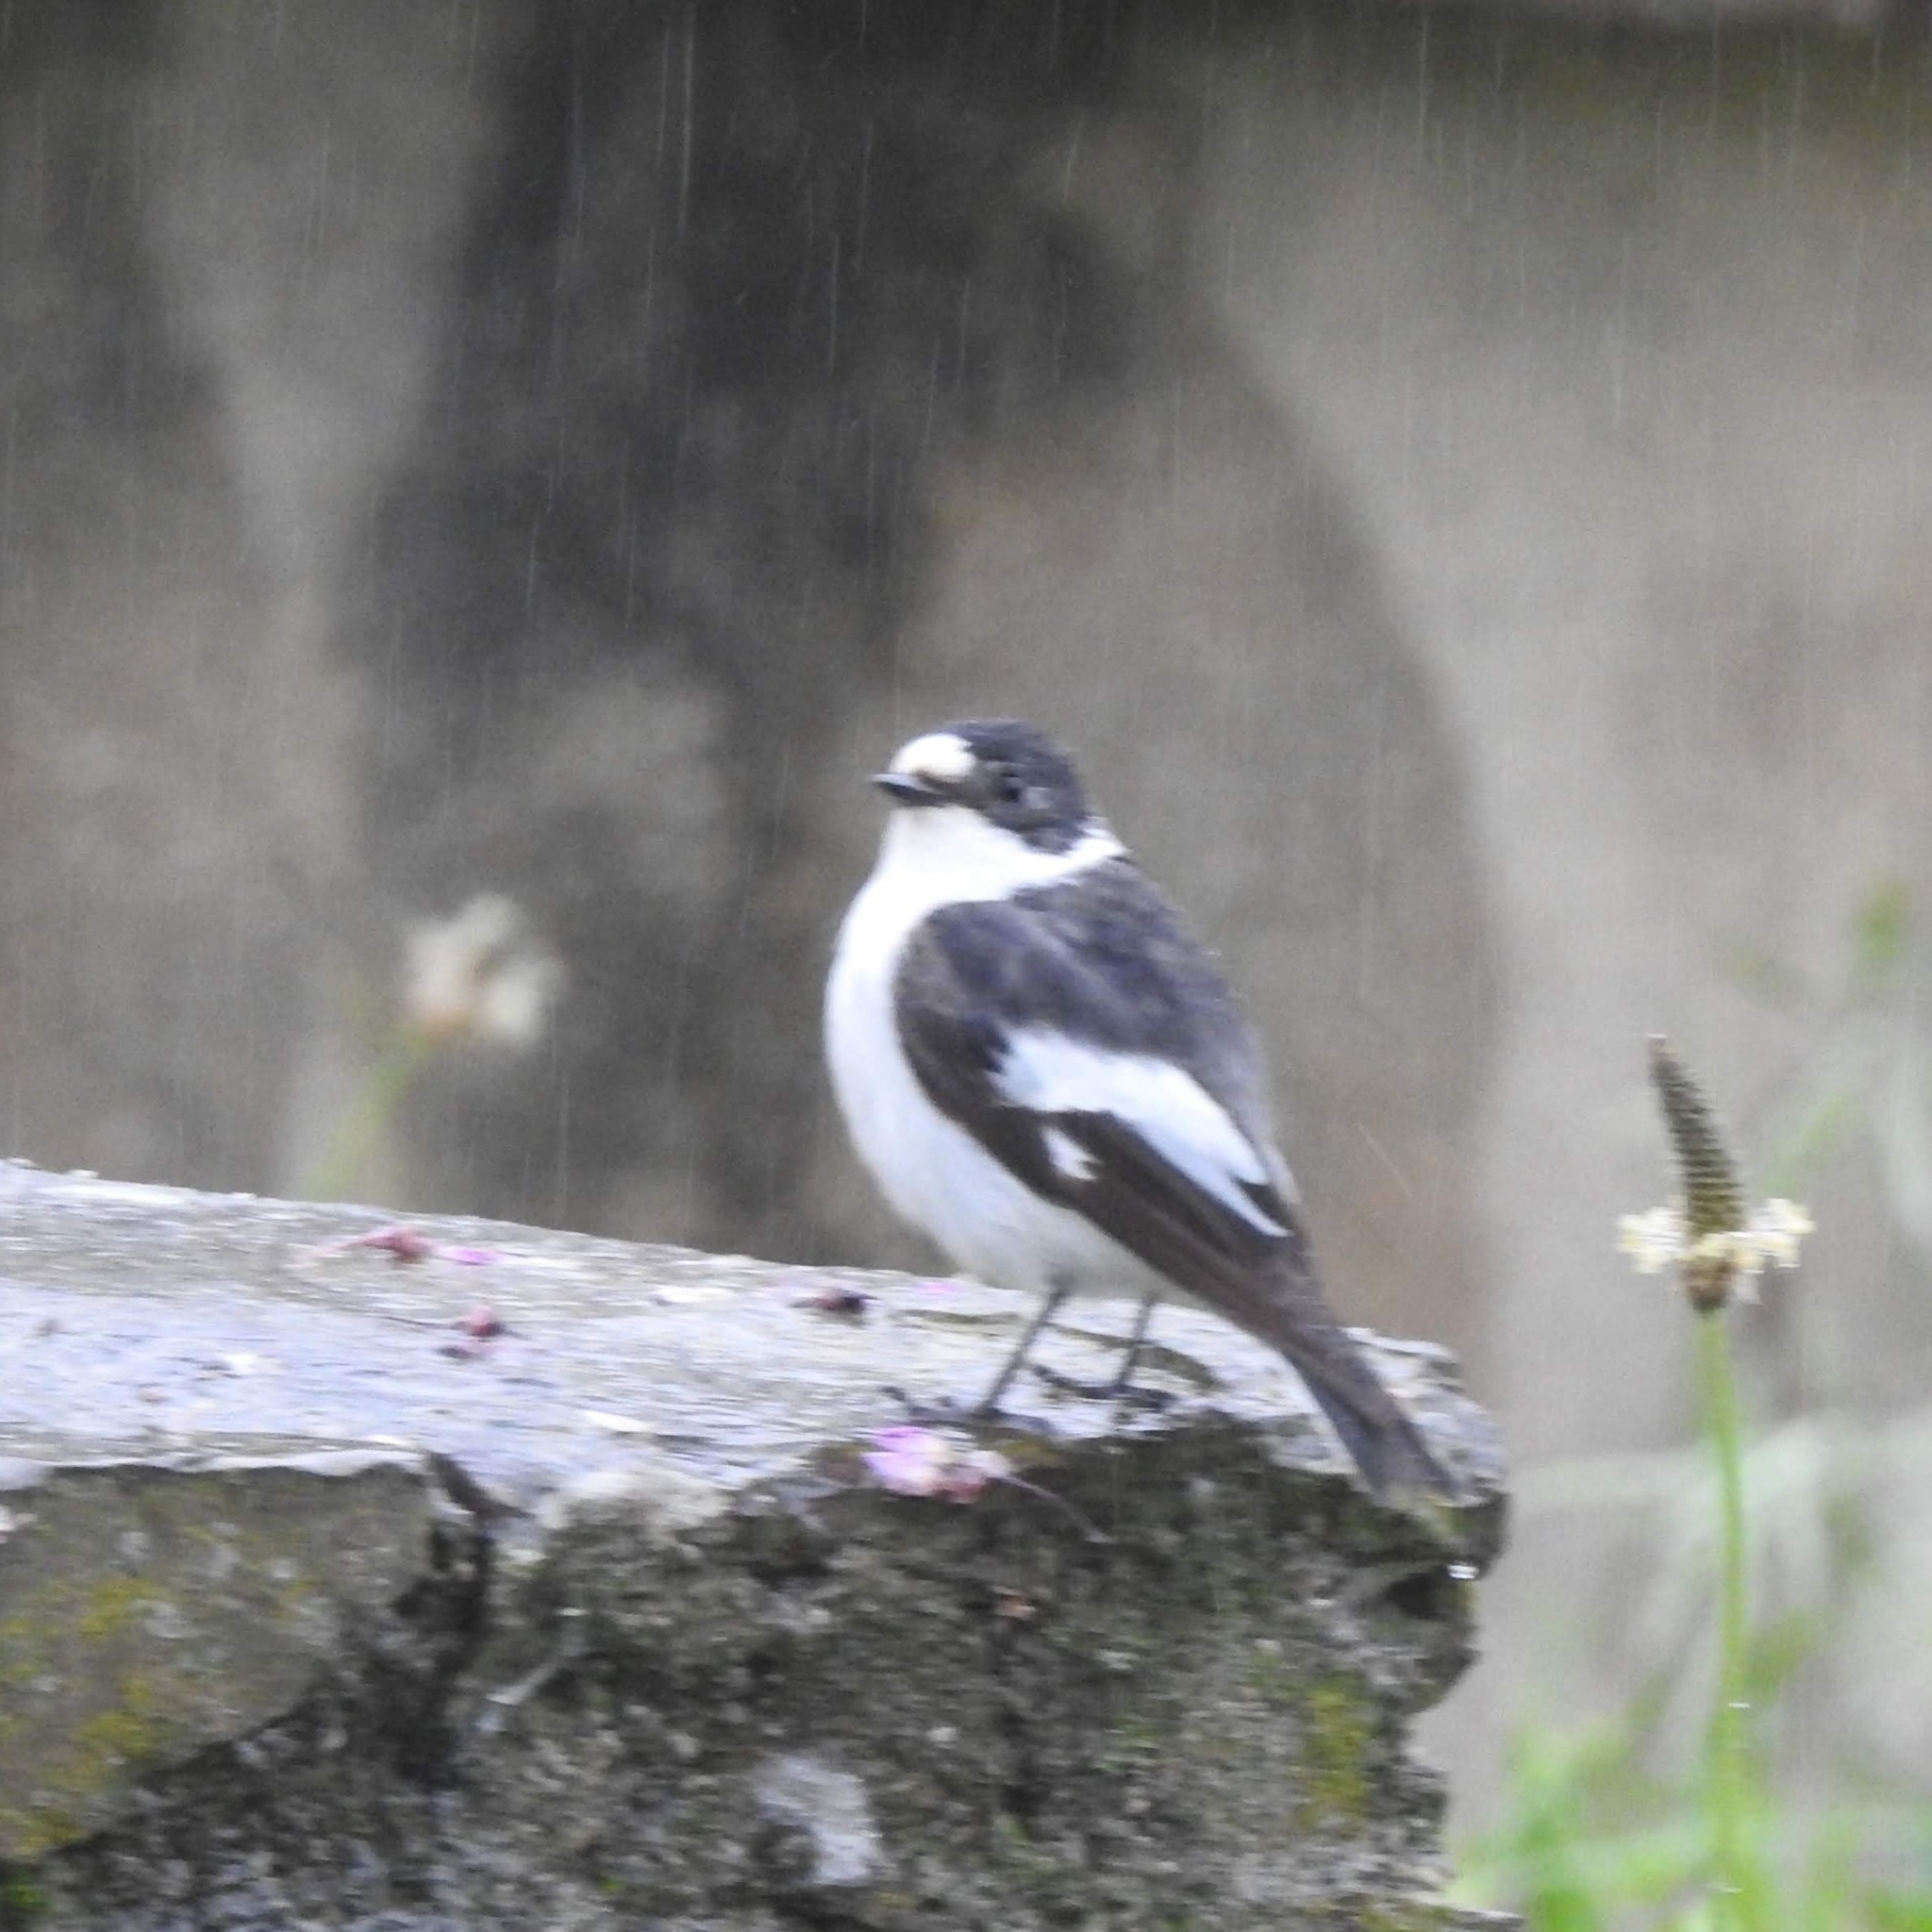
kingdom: Animalia
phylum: Chordata
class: Aves
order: Passeriformes
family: Muscicapidae
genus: Ficedula
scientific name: Ficedula albicollis
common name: Collared flycatcher
